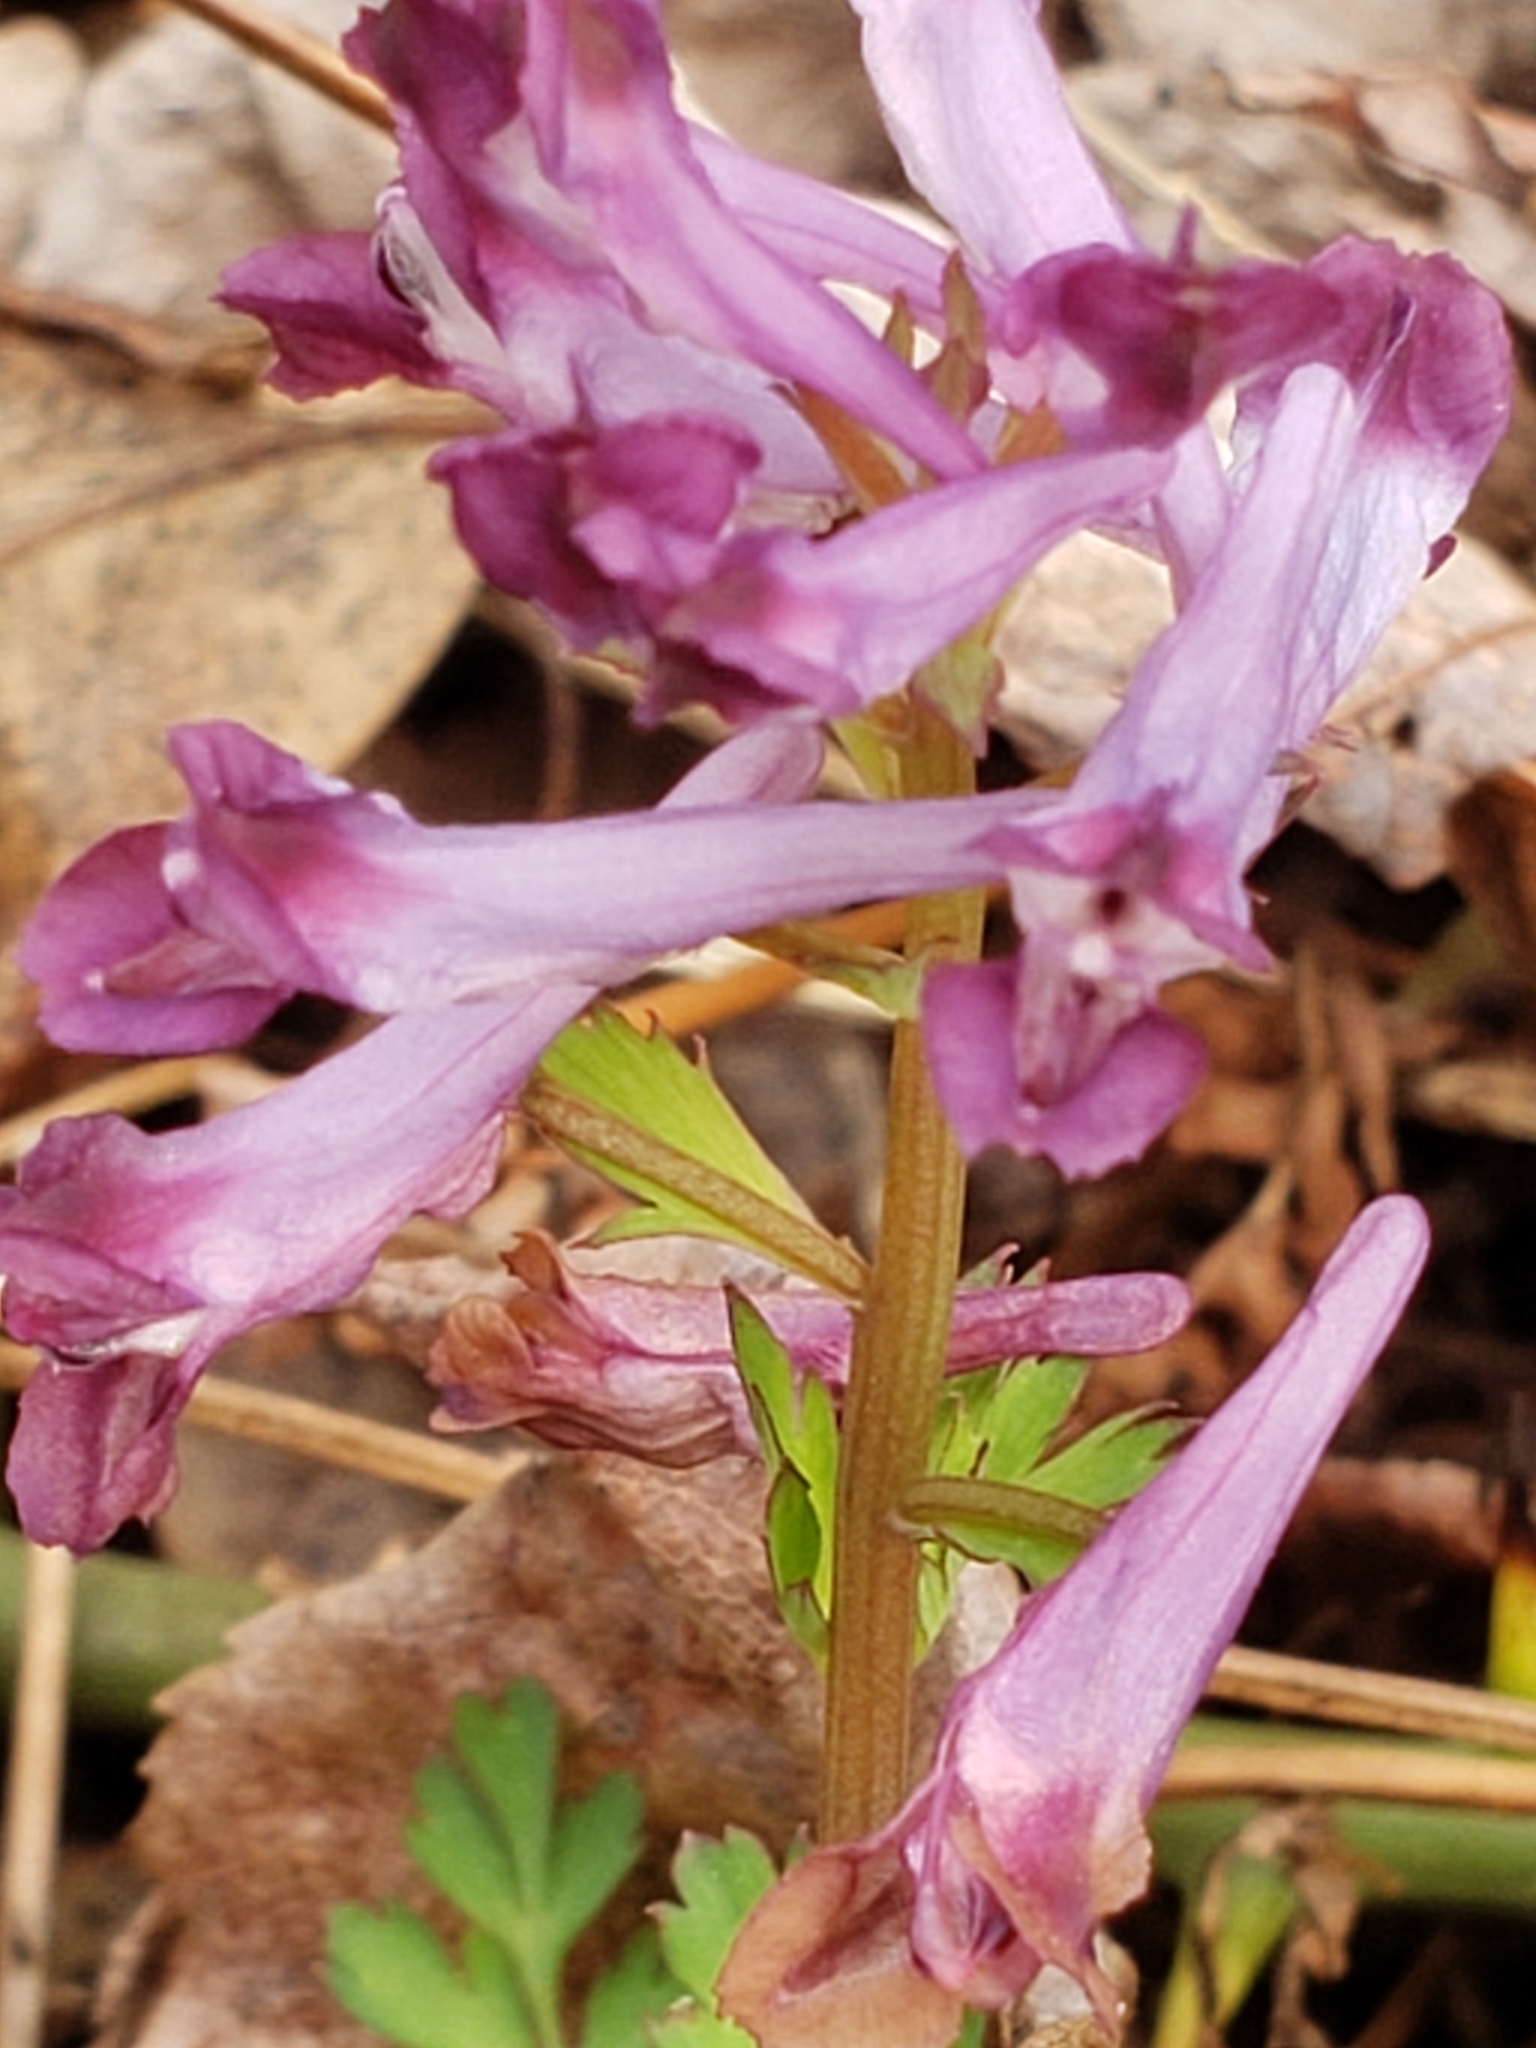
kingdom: Plantae
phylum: Tracheophyta
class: Magnoliopsida
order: Ranunculales
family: Papaveraceae
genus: Corydalis
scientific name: Corydalis incisa
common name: Incised fumewort
